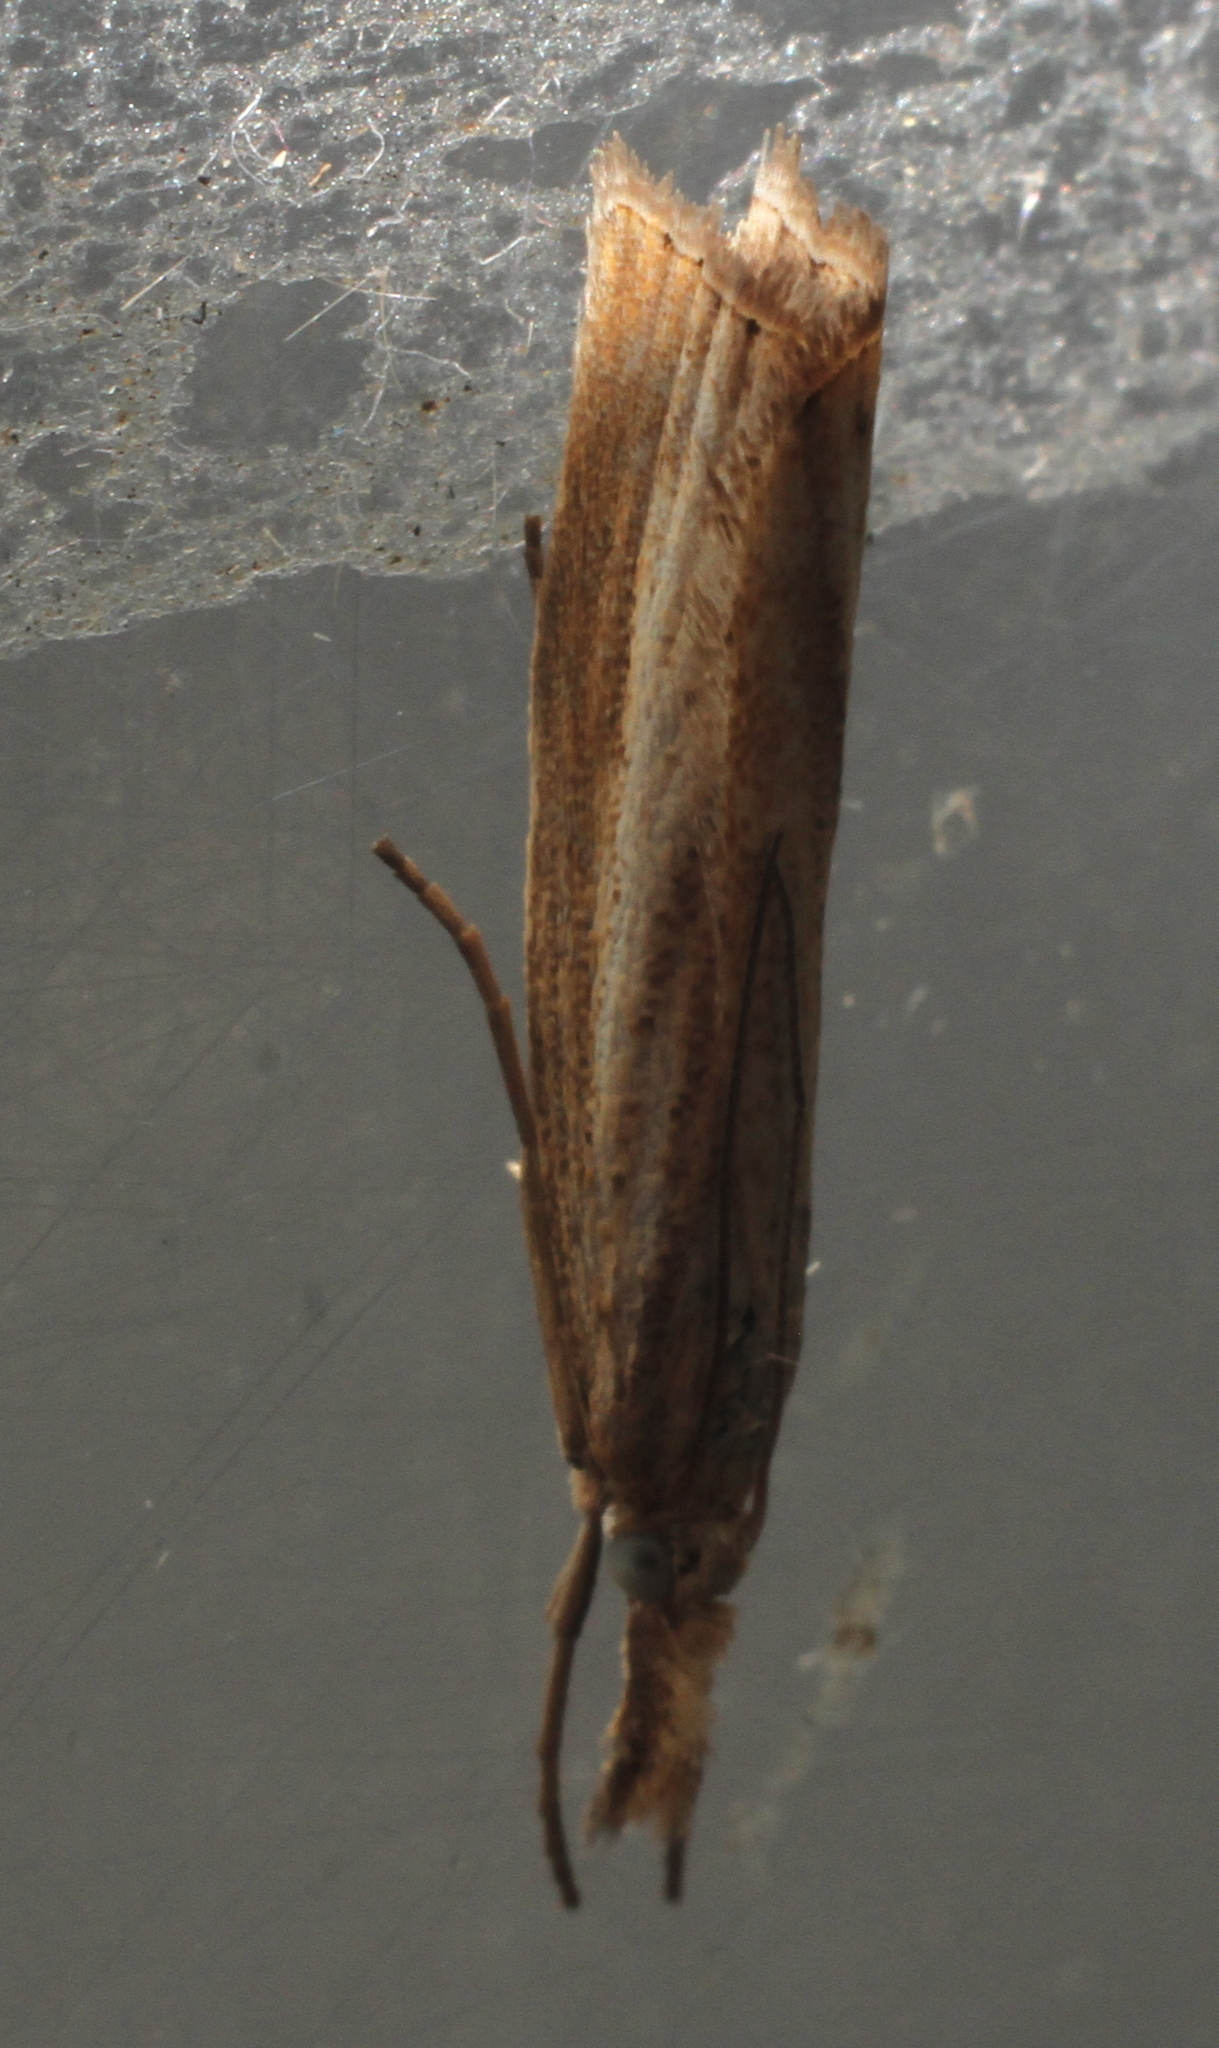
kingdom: Animalia
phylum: Arthropoda
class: Insecta
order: Lepidoptera
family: Crambidae
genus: Agriphila
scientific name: Agriphila straminella
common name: Straw grass-veneer
